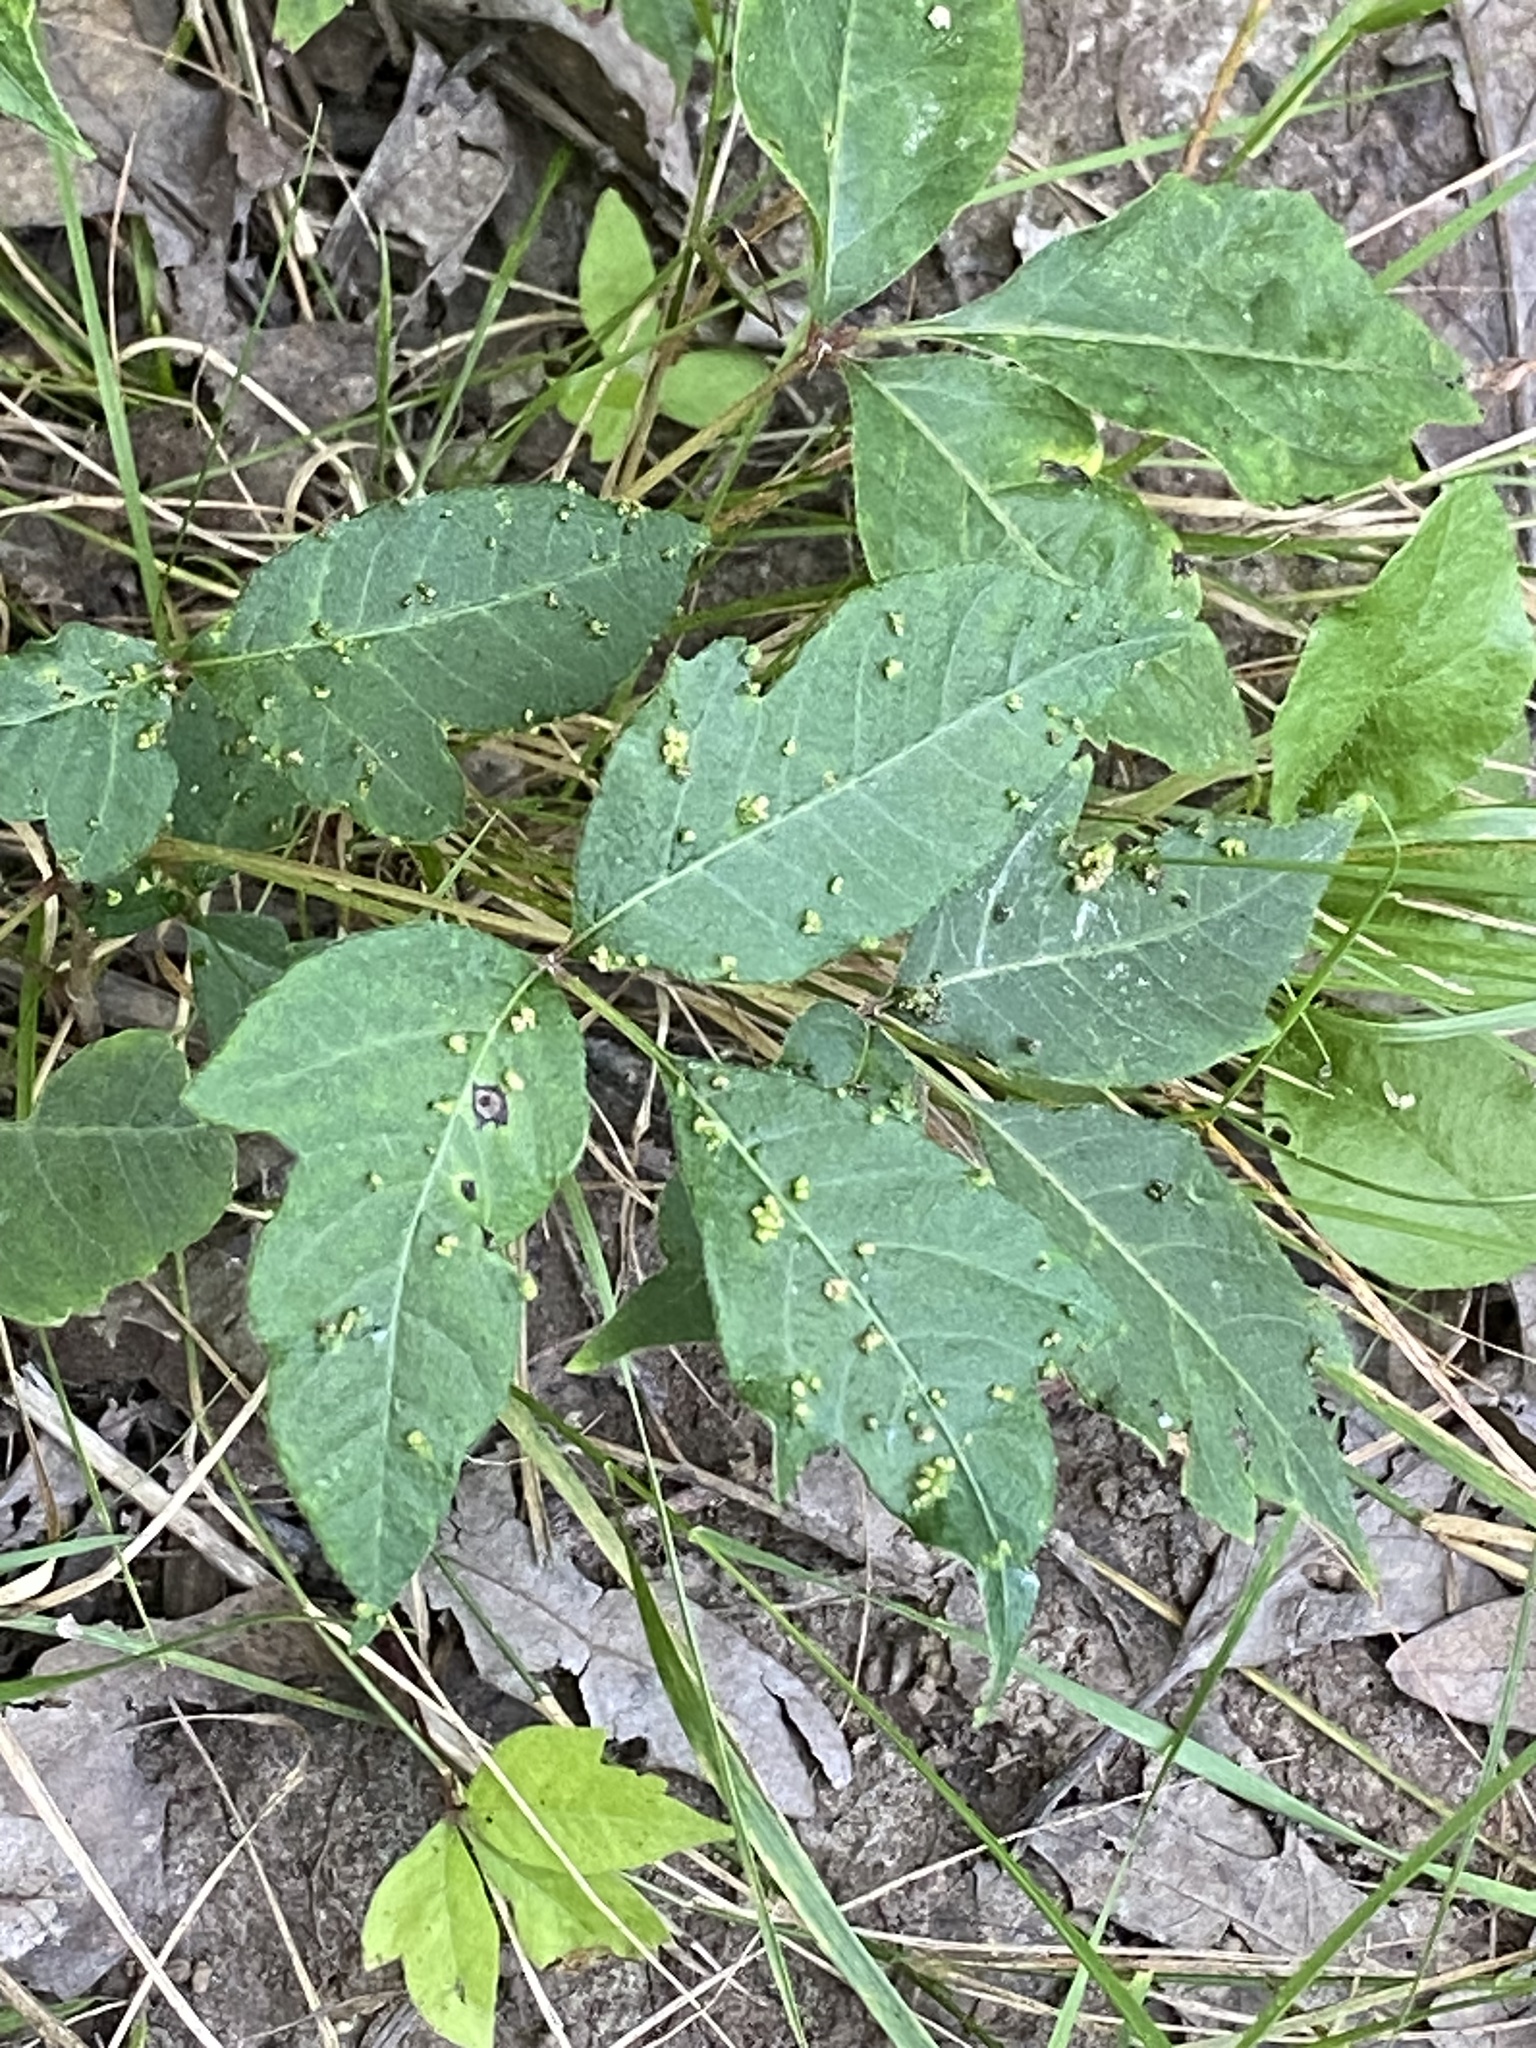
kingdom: Animalia
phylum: Arthropoda
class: Arachnida
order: Trombidiformes
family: Eriophyidae
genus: Aculops
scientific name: Aculops
